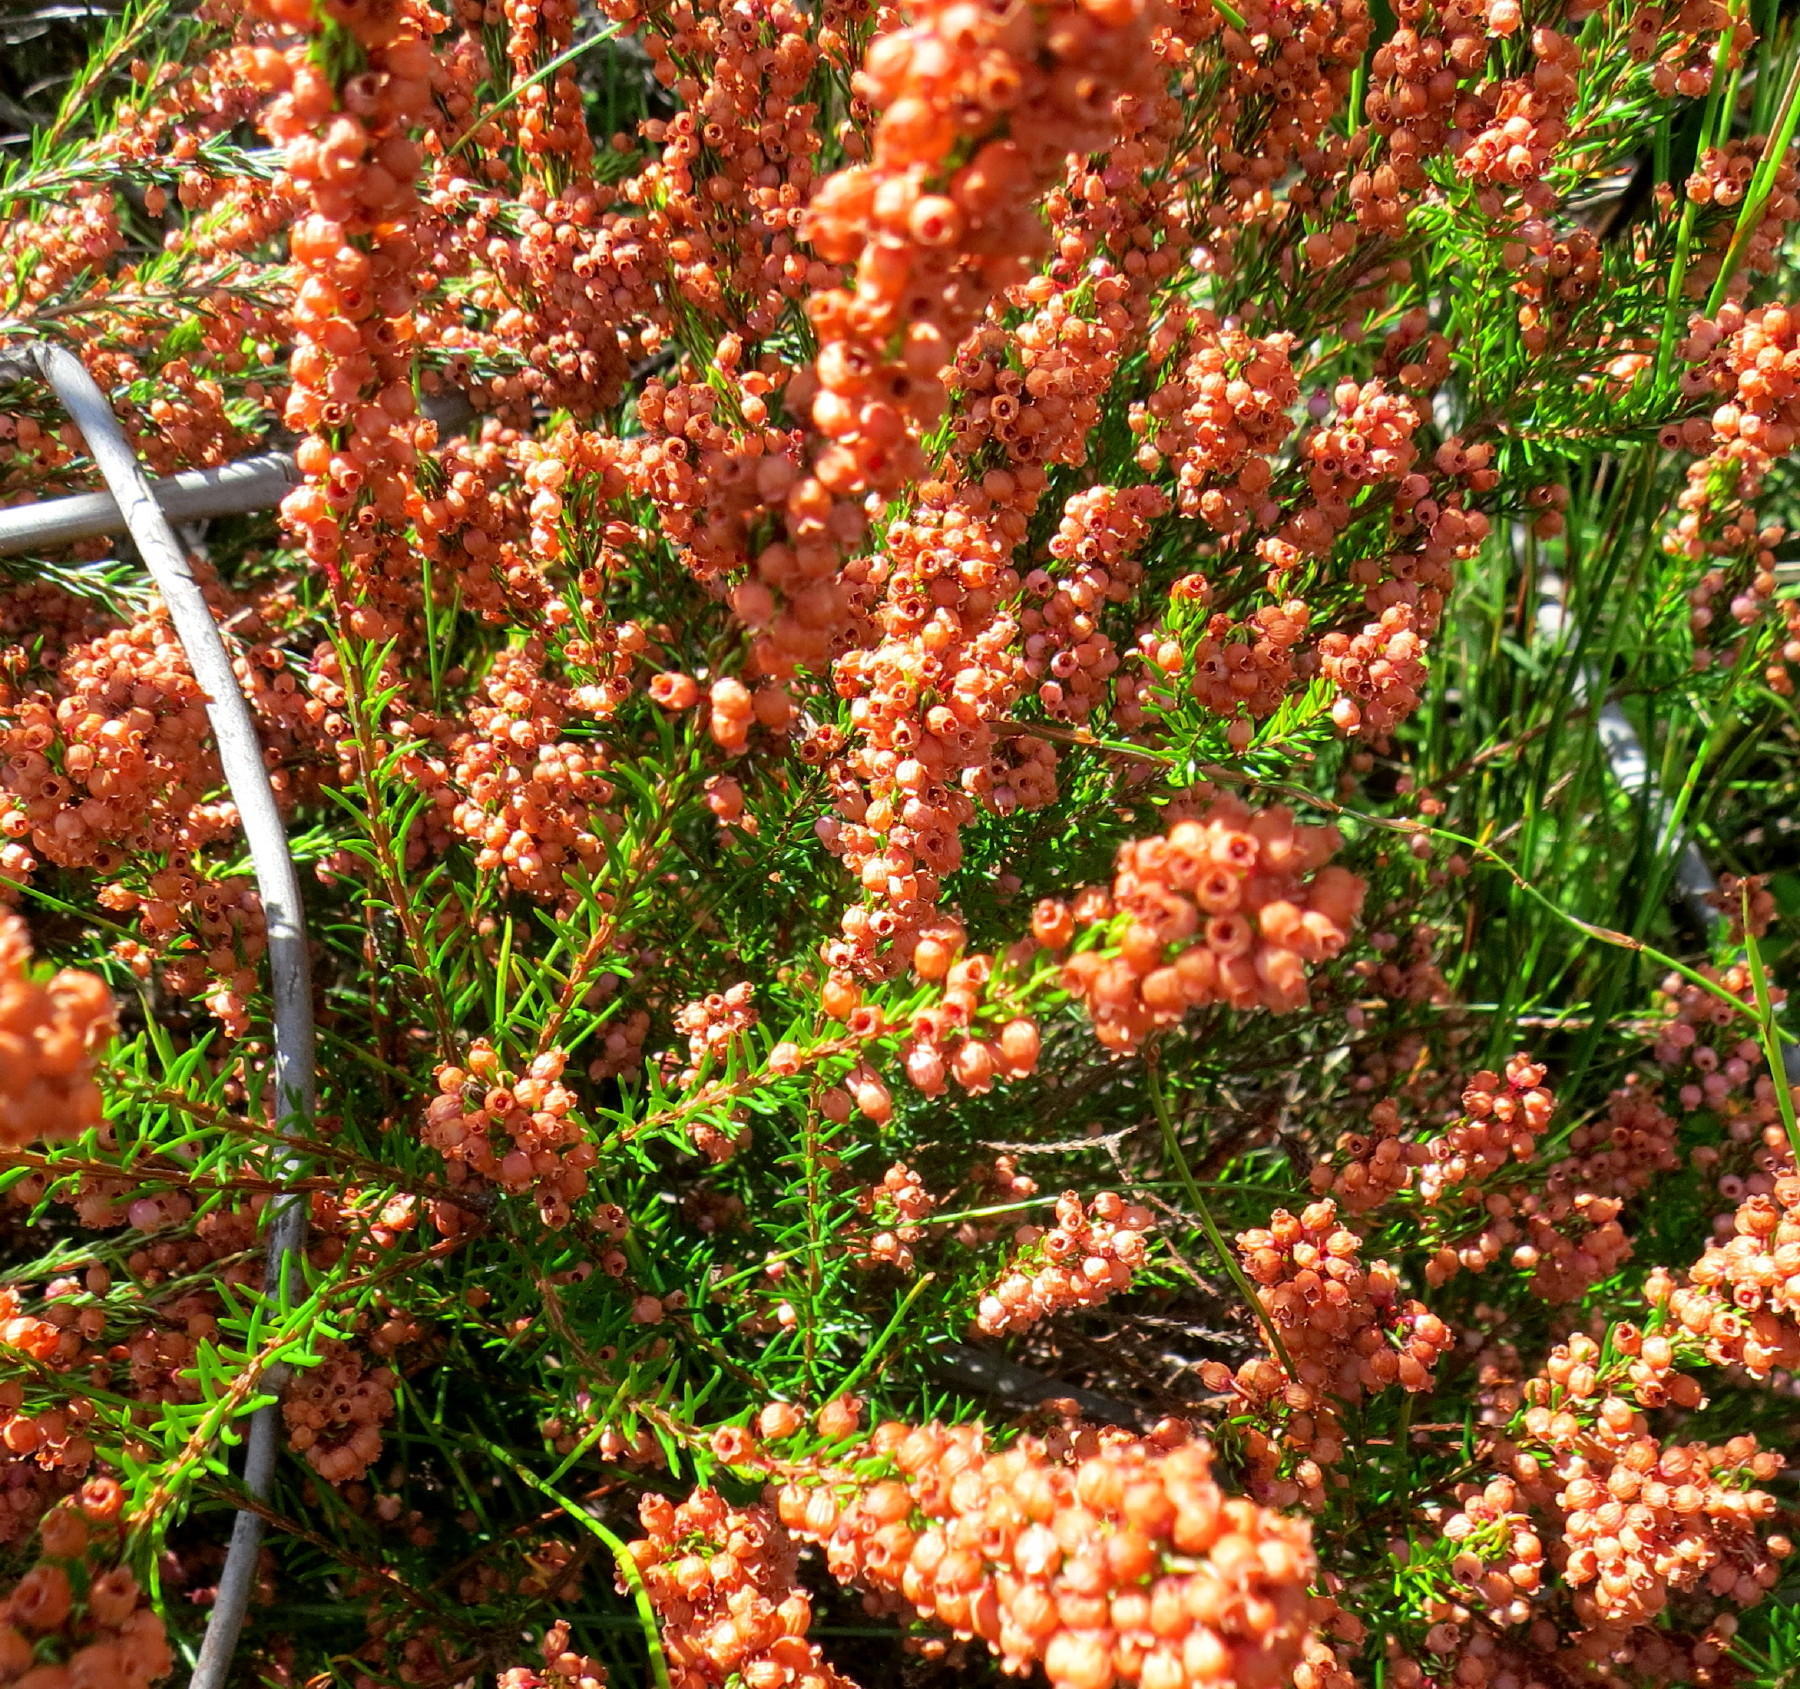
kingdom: Plantae
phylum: Tracheophyta
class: Magnoliopsida
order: Ericales
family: Ericaceae
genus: Erica
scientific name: Erica regerminans
